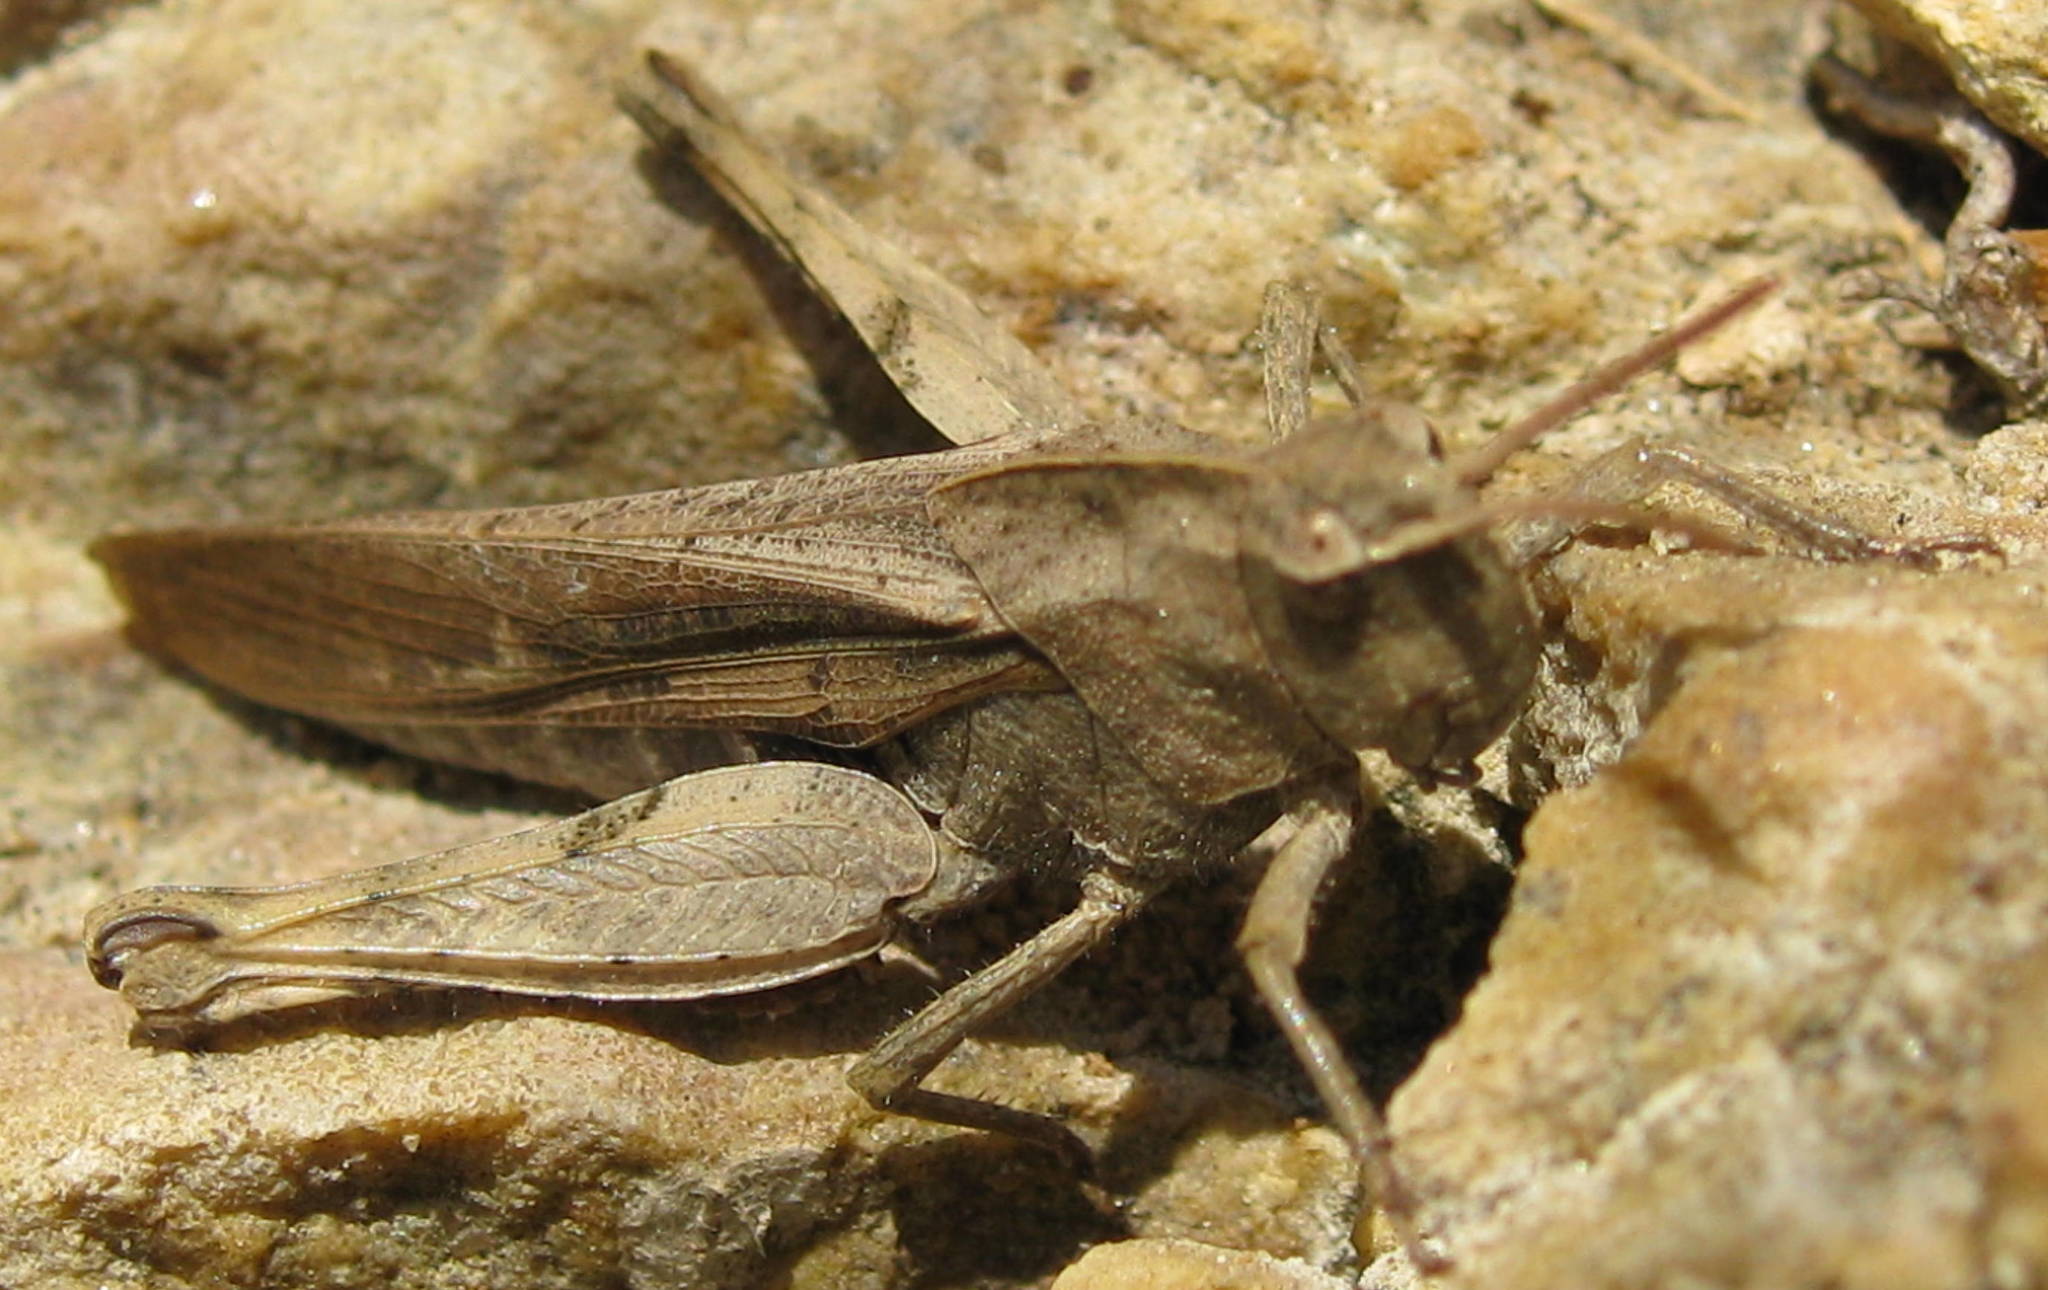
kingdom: Animalia
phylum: Arthropoda
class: Insecta
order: Orthoptera
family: Acrididae
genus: Chortophaga
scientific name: Chortophaga viridifasciata
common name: Green-striped grasshopper
